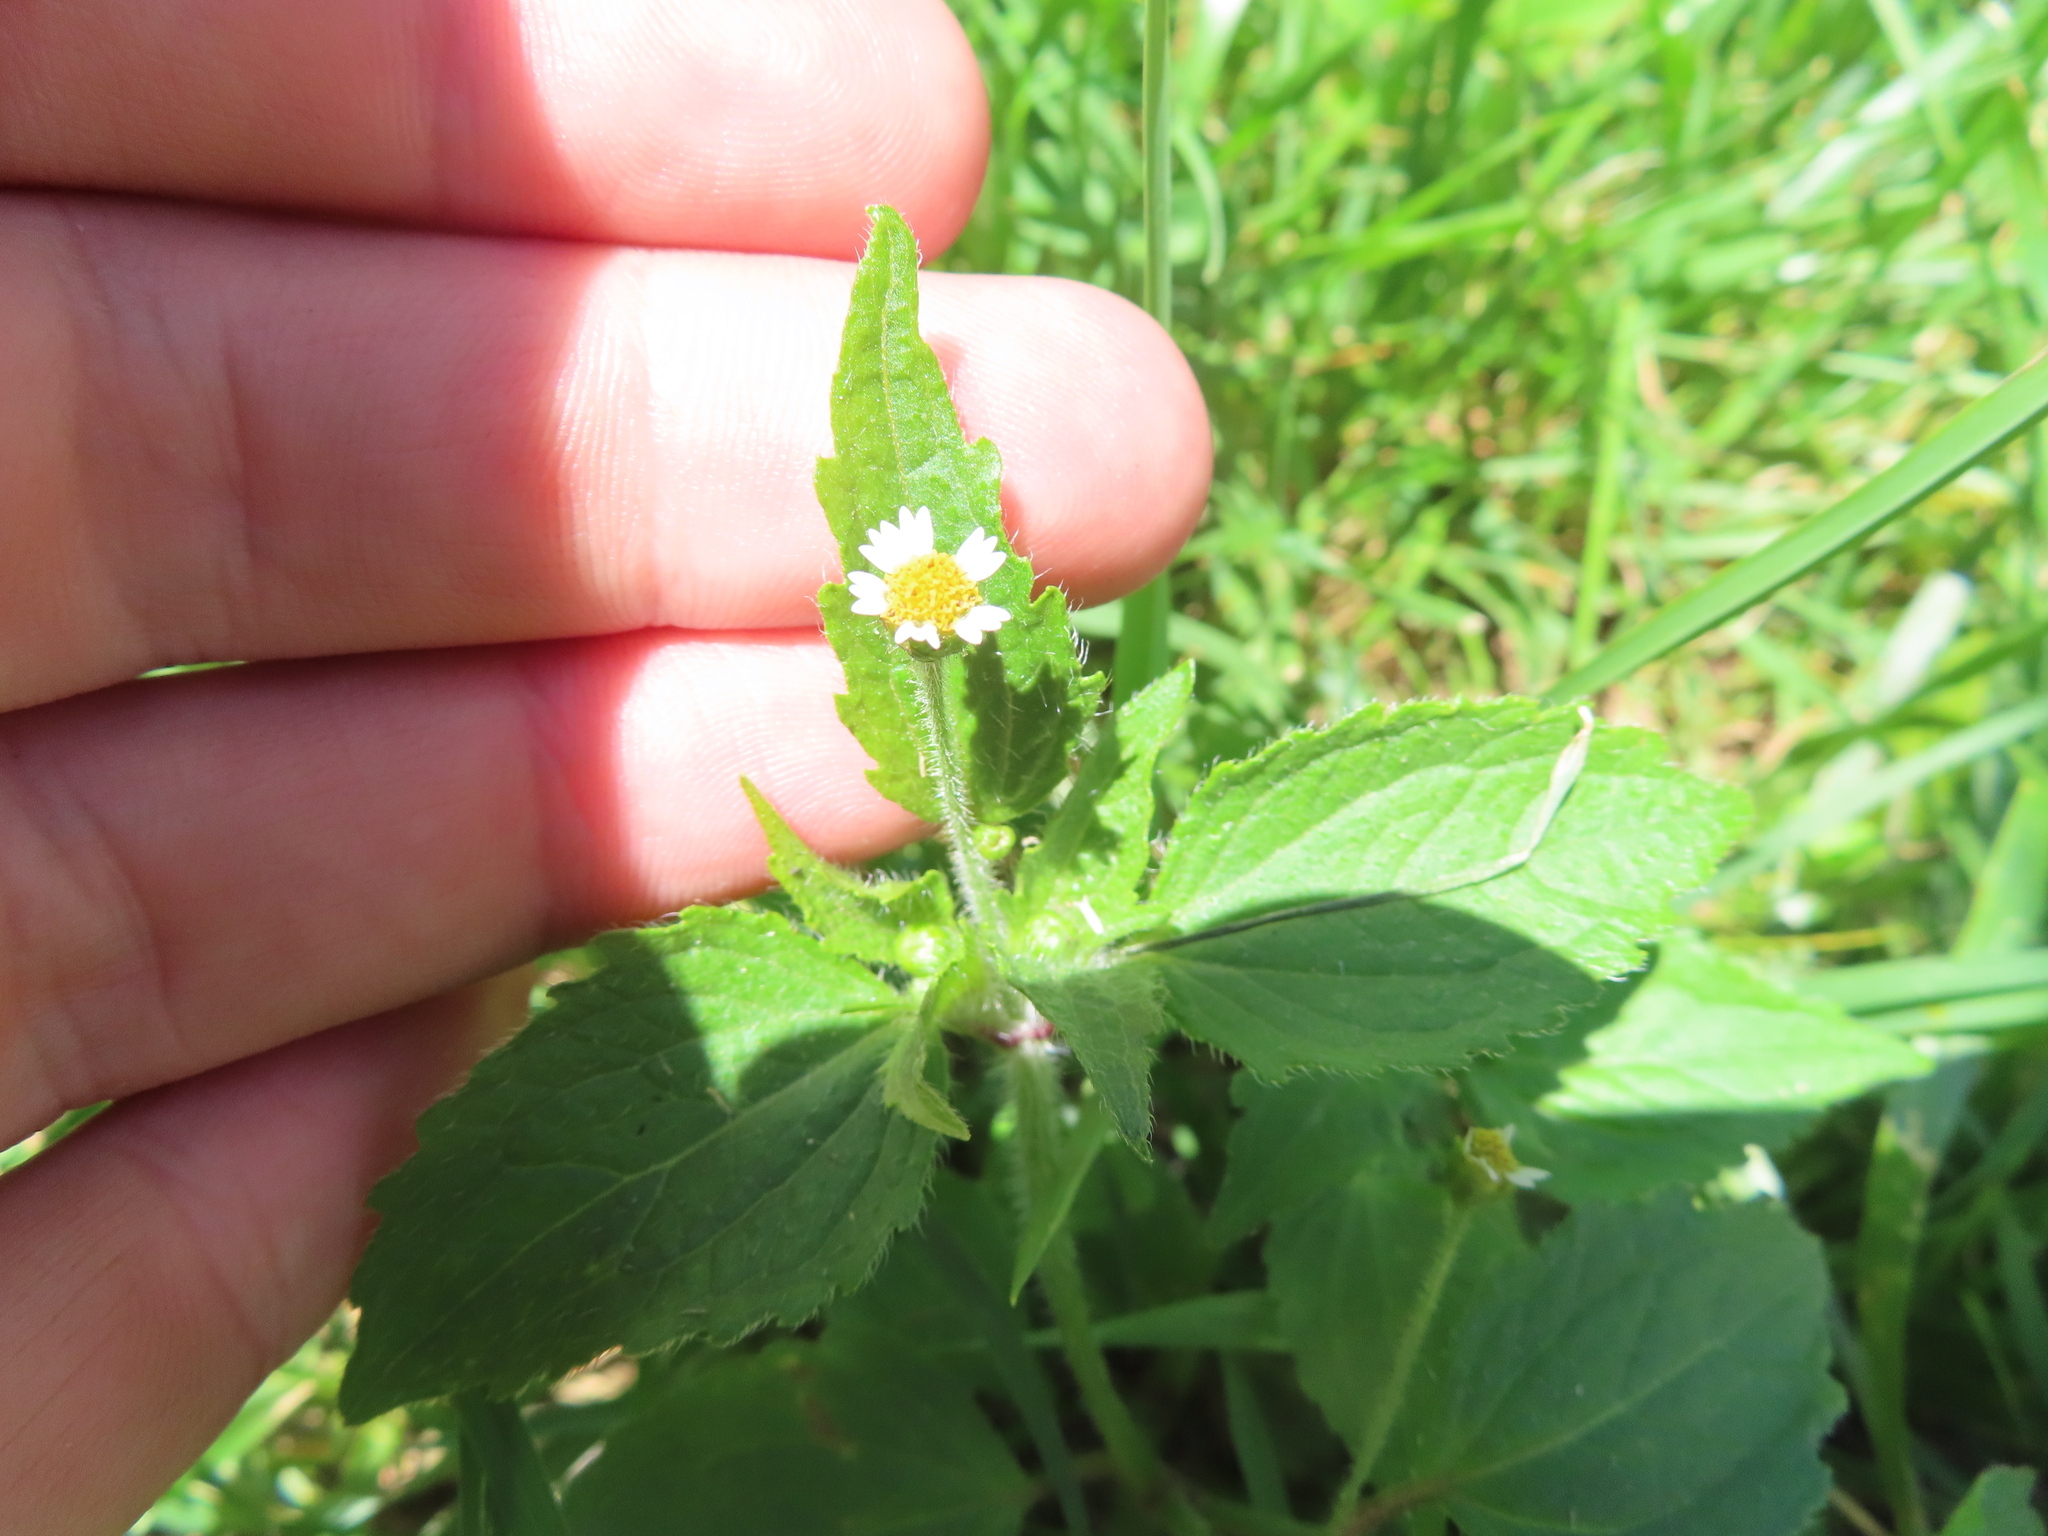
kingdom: Plantae
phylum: Tracheophyta
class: Magnoliopsida
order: Asterales
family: Asteraceae
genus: Galinsoga
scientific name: Galinsoga quadriradiata
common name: Shaggy soldier
